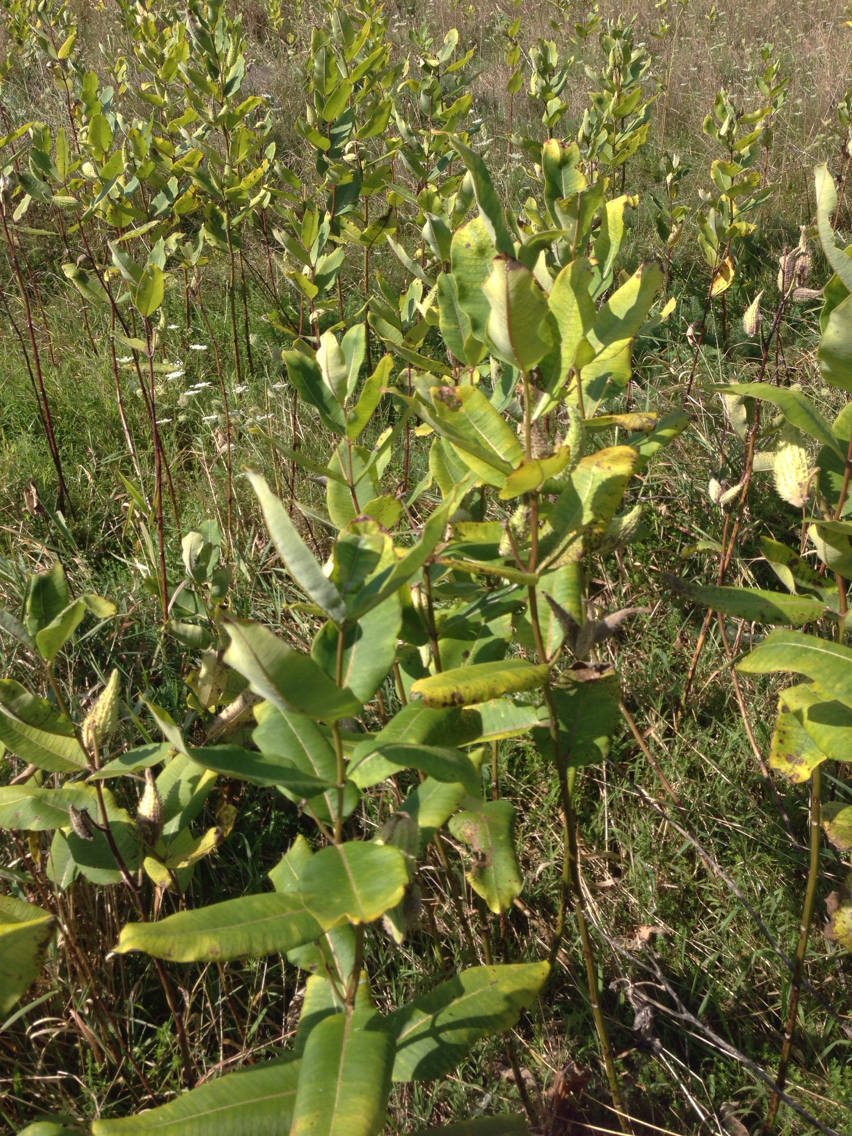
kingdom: Plantae
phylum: Tracheophyta
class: Magnoliopsida
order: Gentianales
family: Apocynaceae
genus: Asclepias
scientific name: Asclepias syriaca
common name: Common milkweed
